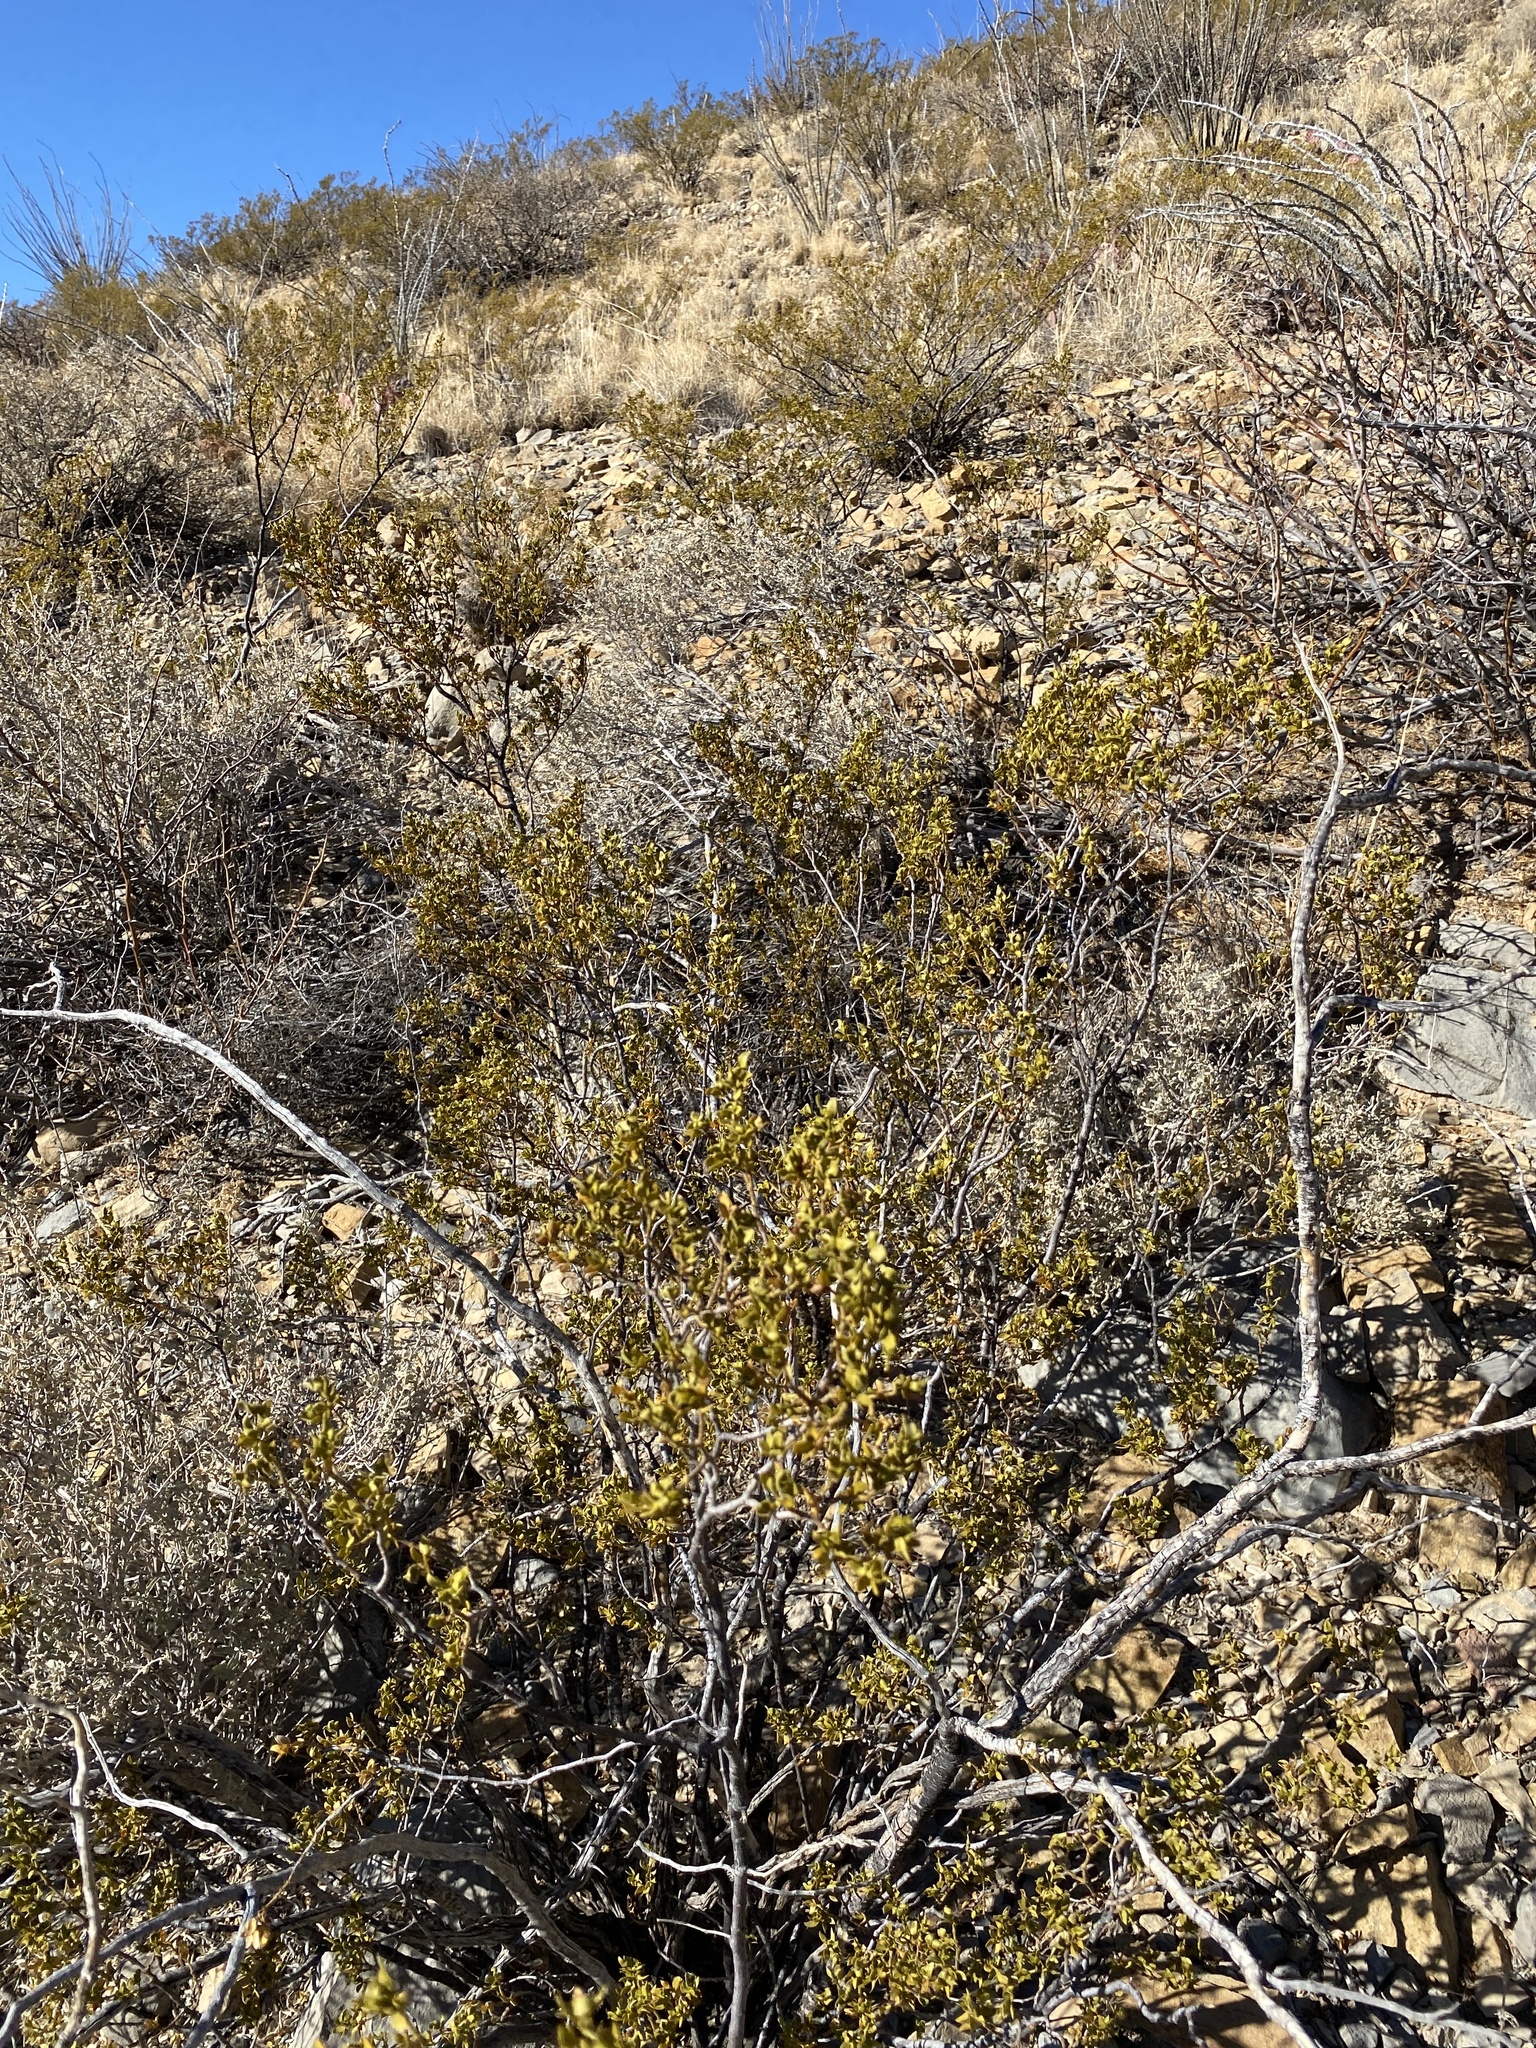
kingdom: Plantae
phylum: Tracheophyta
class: Magnoliopsida
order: Zygophyllales
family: Zygophyllaceae
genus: Larrea
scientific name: Larrea tridentata
